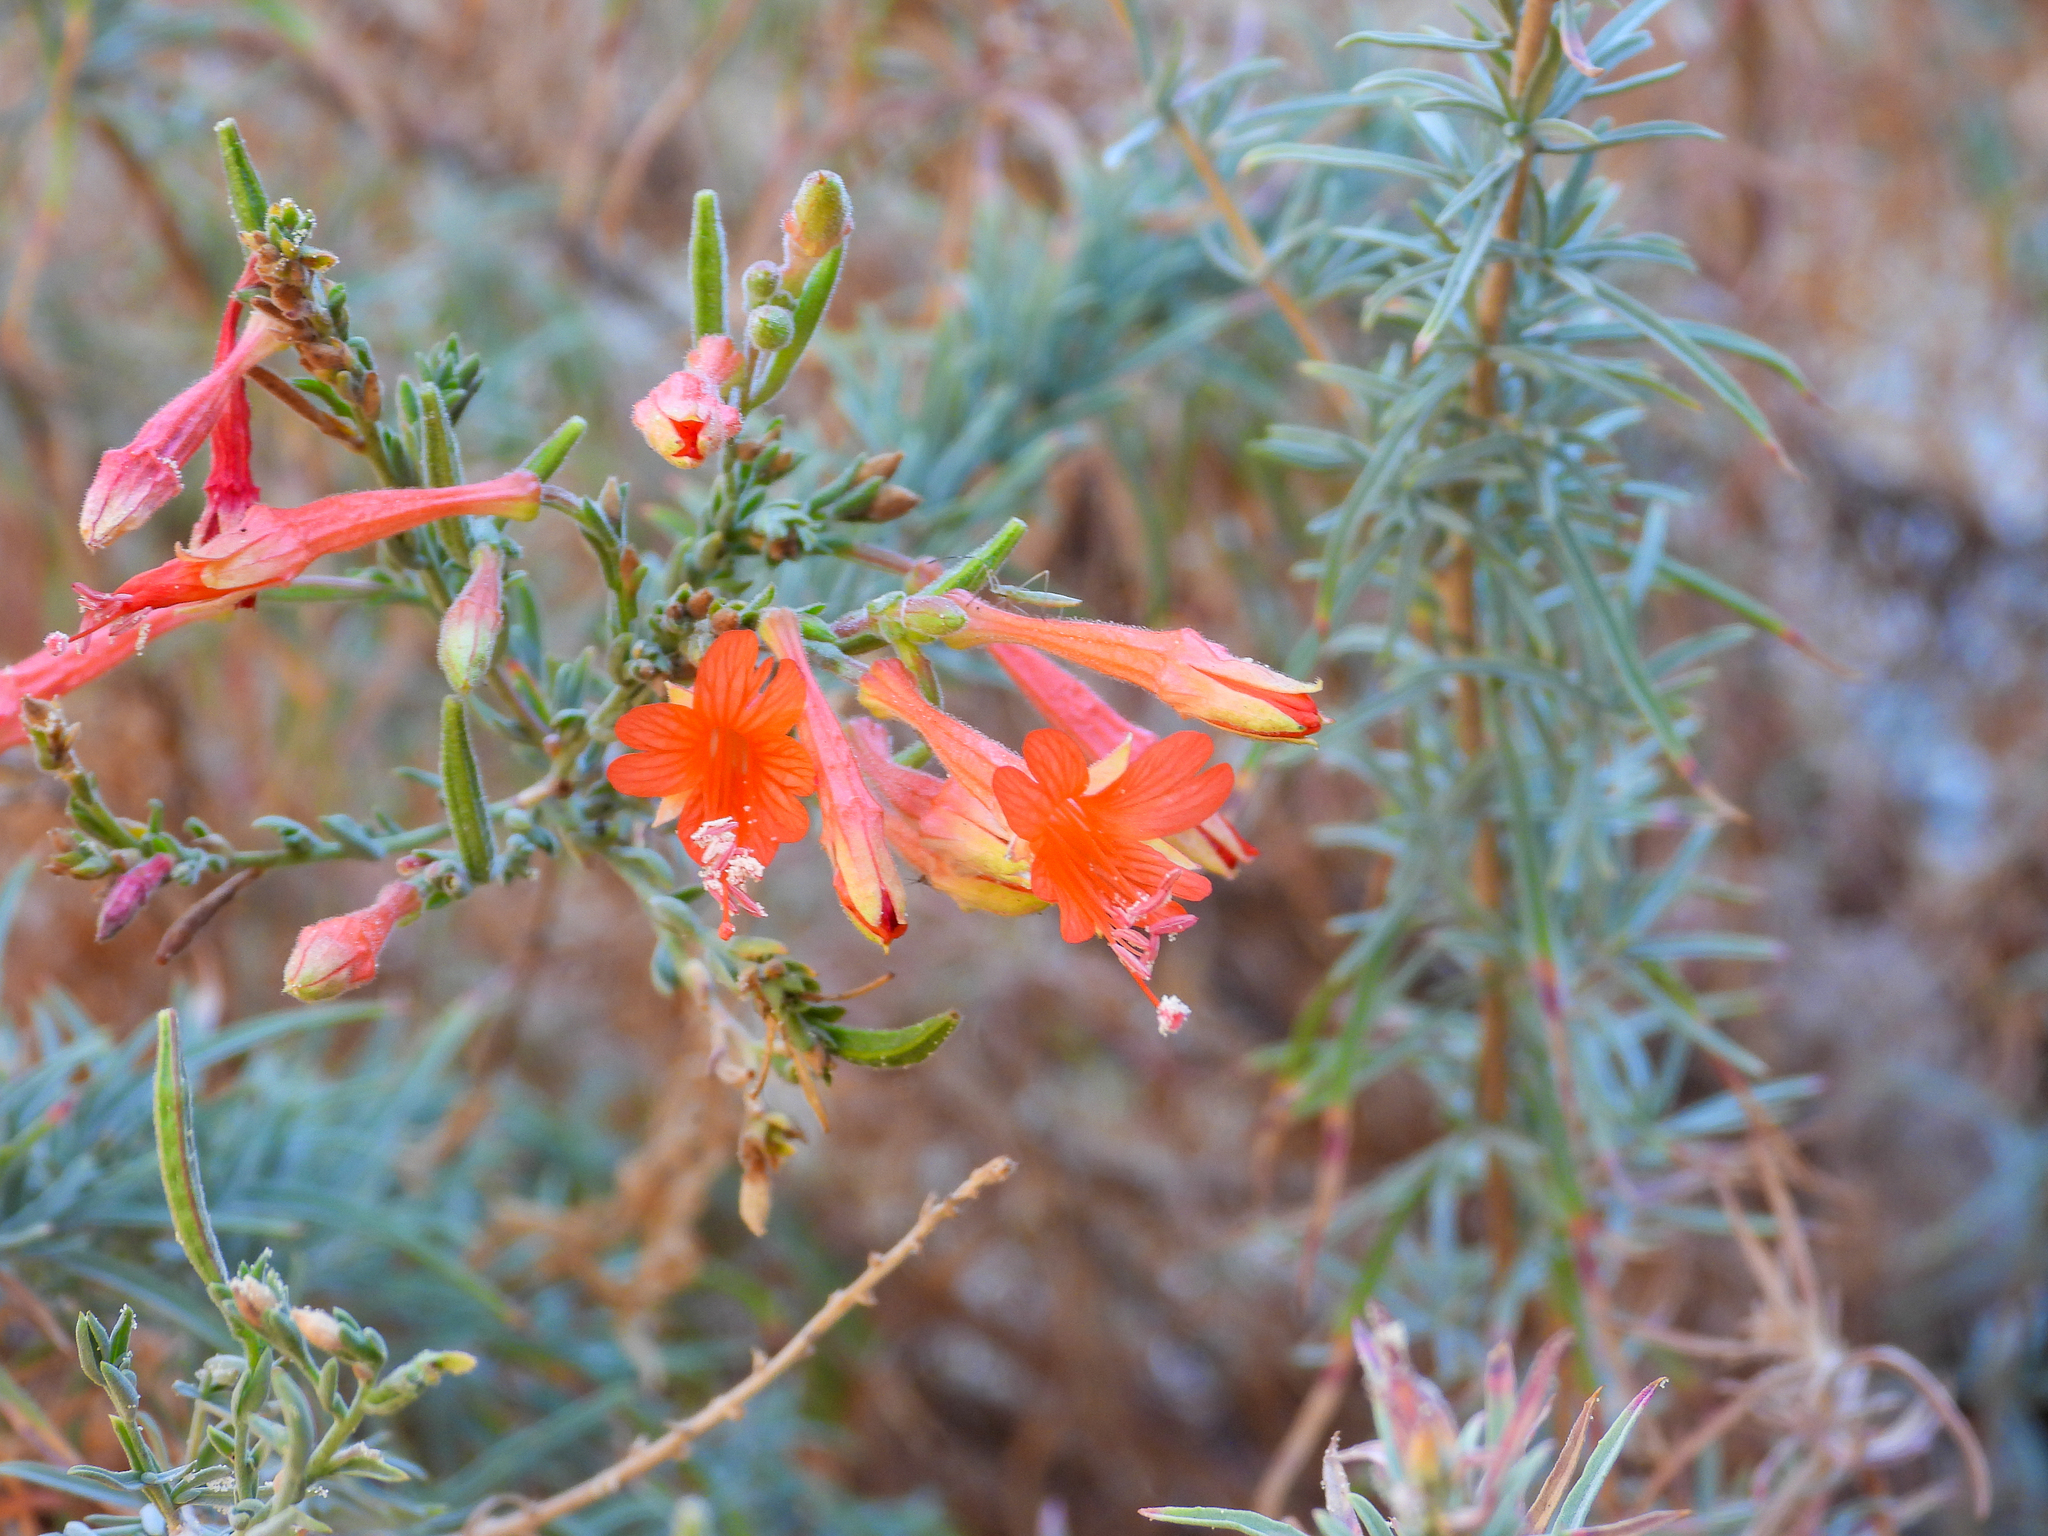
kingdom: Plantae
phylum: Tracheophyta
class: Magnoliopsida
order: Myrtales
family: Onagraceae
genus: Epilobium
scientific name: Epilobium canum
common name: California-fuchsia
